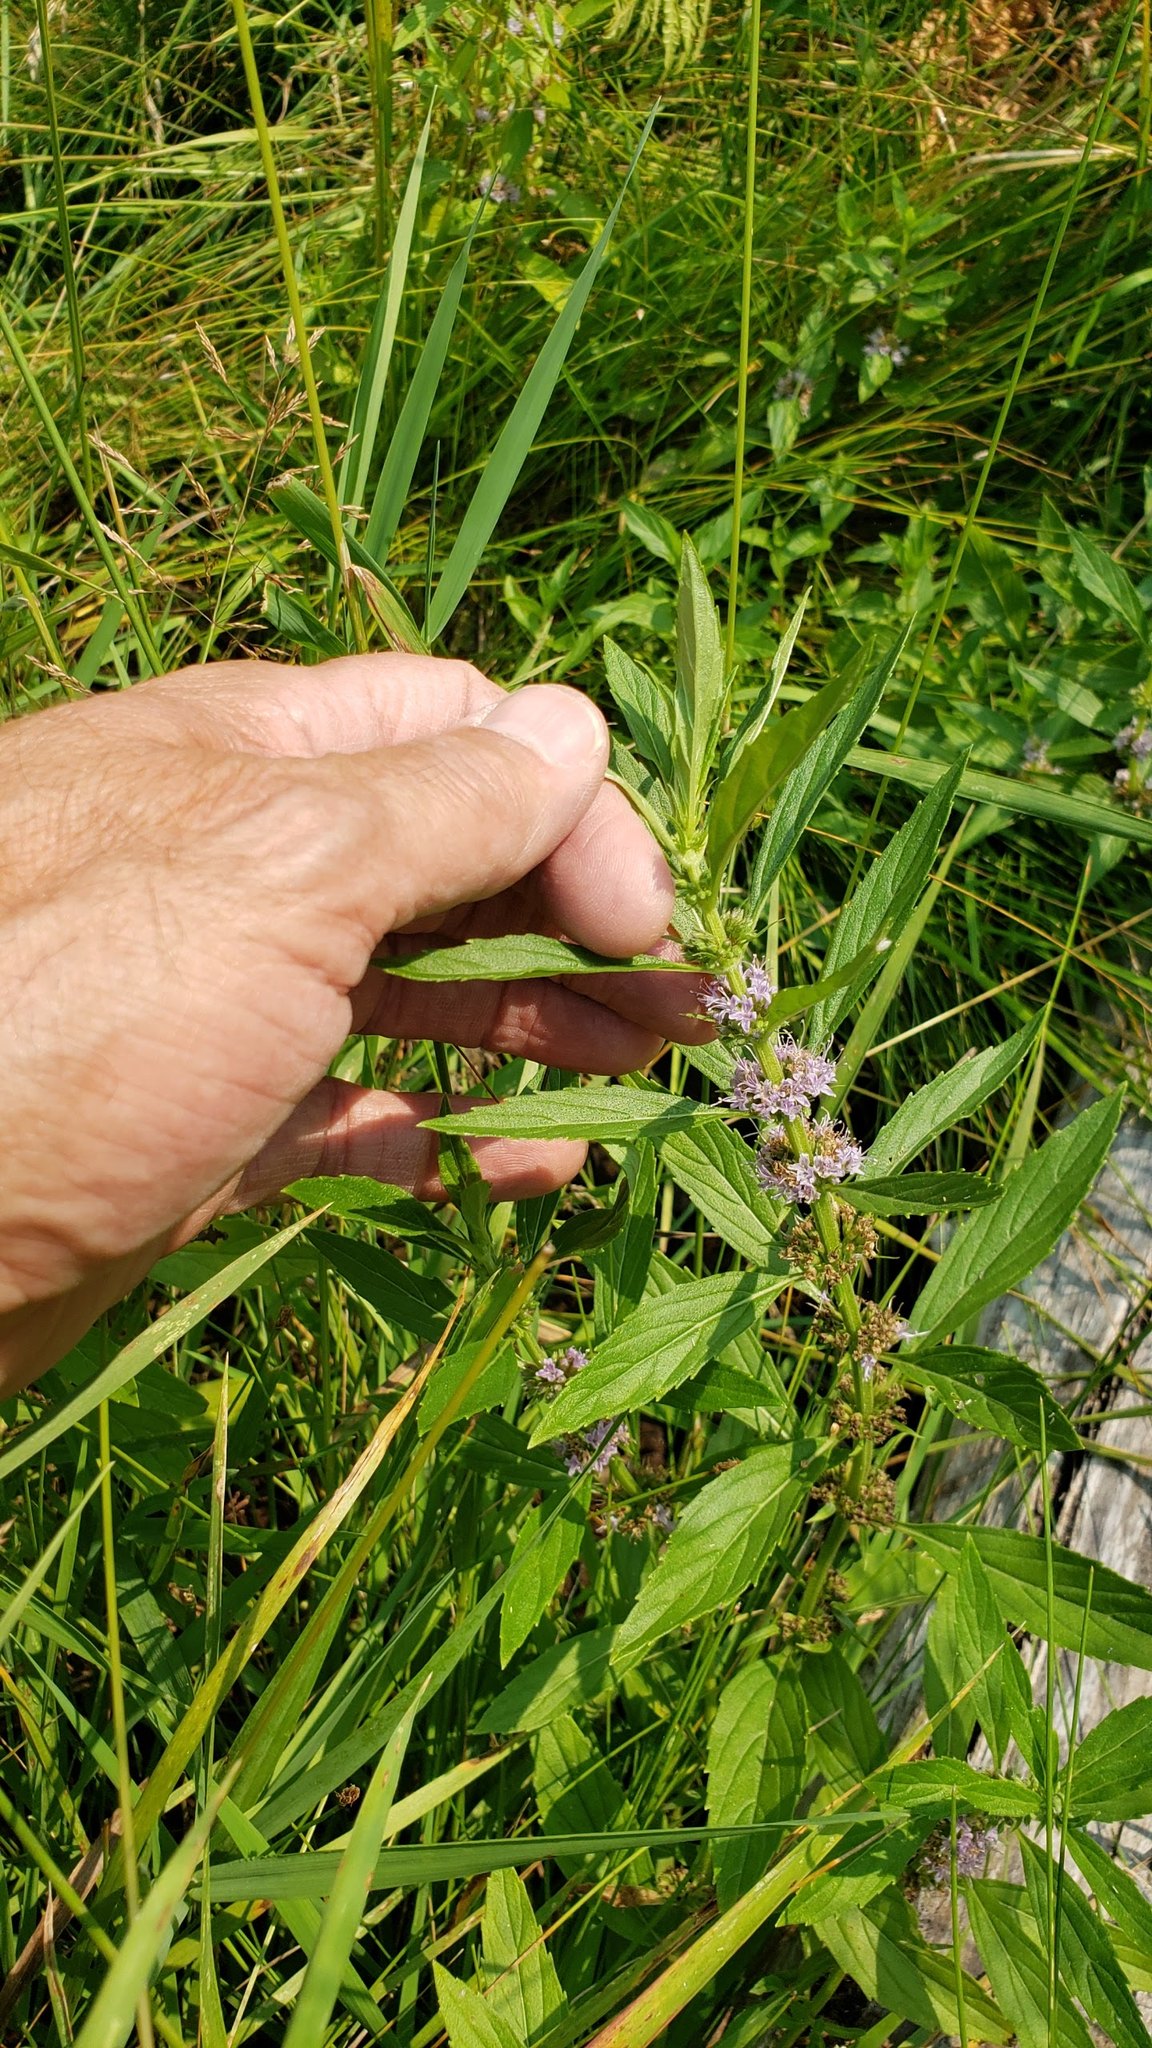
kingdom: Plantae
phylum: Tracheophyta
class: Magnoliopsida
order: Lamiales
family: Lamiaceae
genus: Mentha
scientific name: Mentha canadensis
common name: American corn mint
